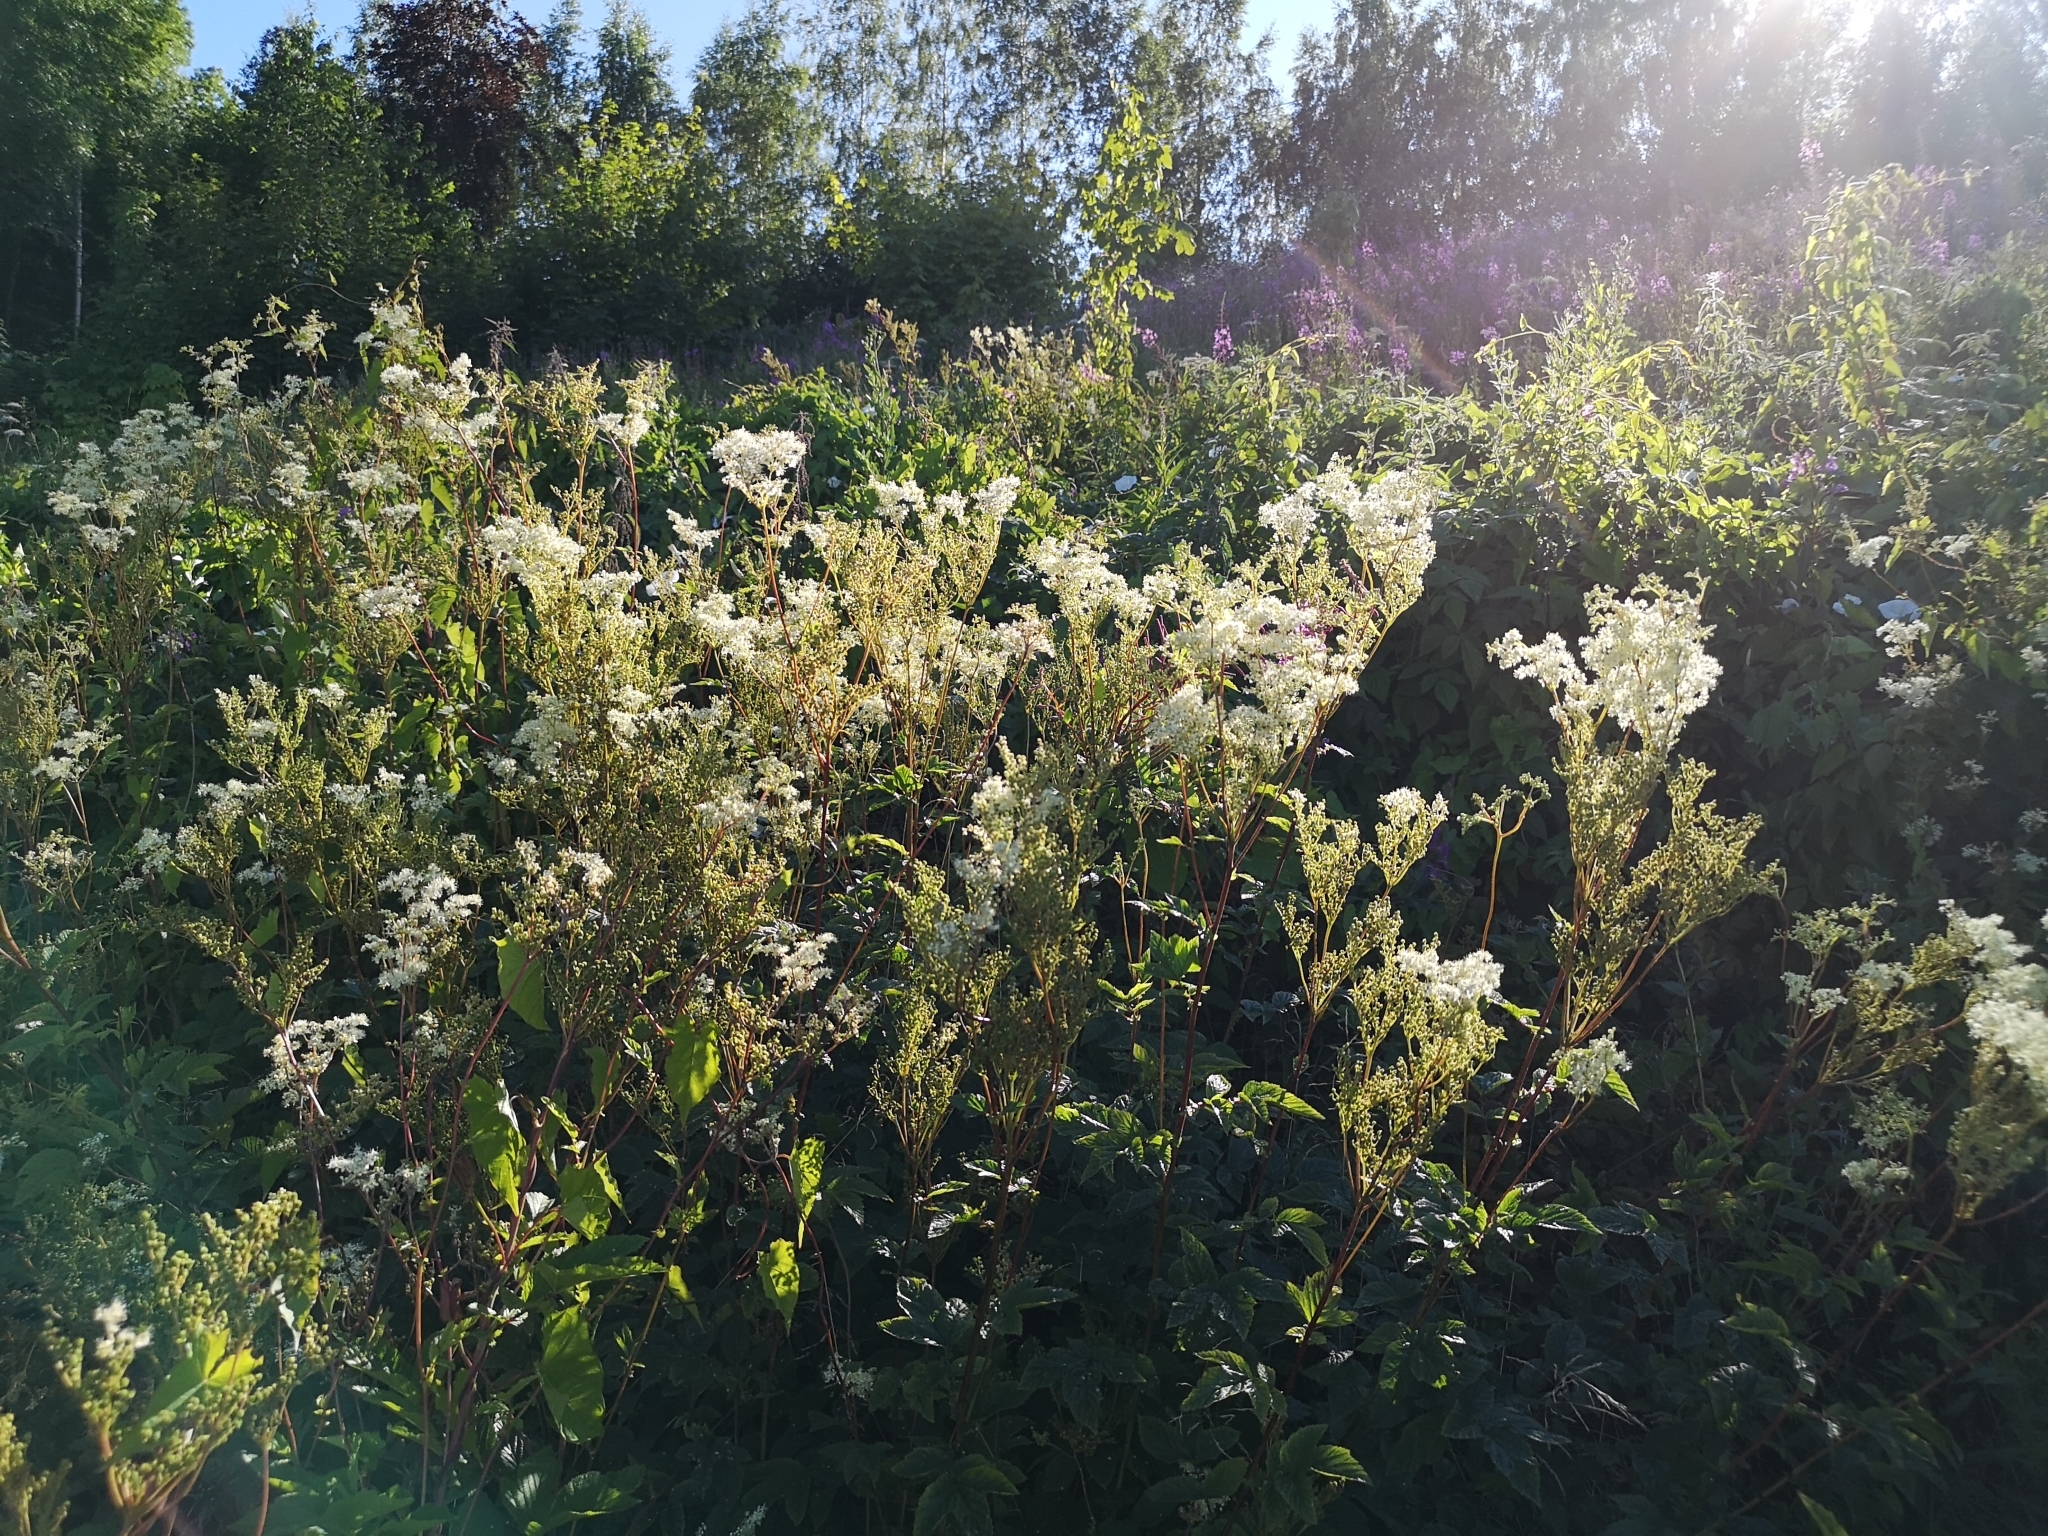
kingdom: Plantae
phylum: Tracheophyta
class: Magnoliopsida
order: Rosales
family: Rosaceae
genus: Filipendula
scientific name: Filipendula ulmaria
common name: Meadowsweet
